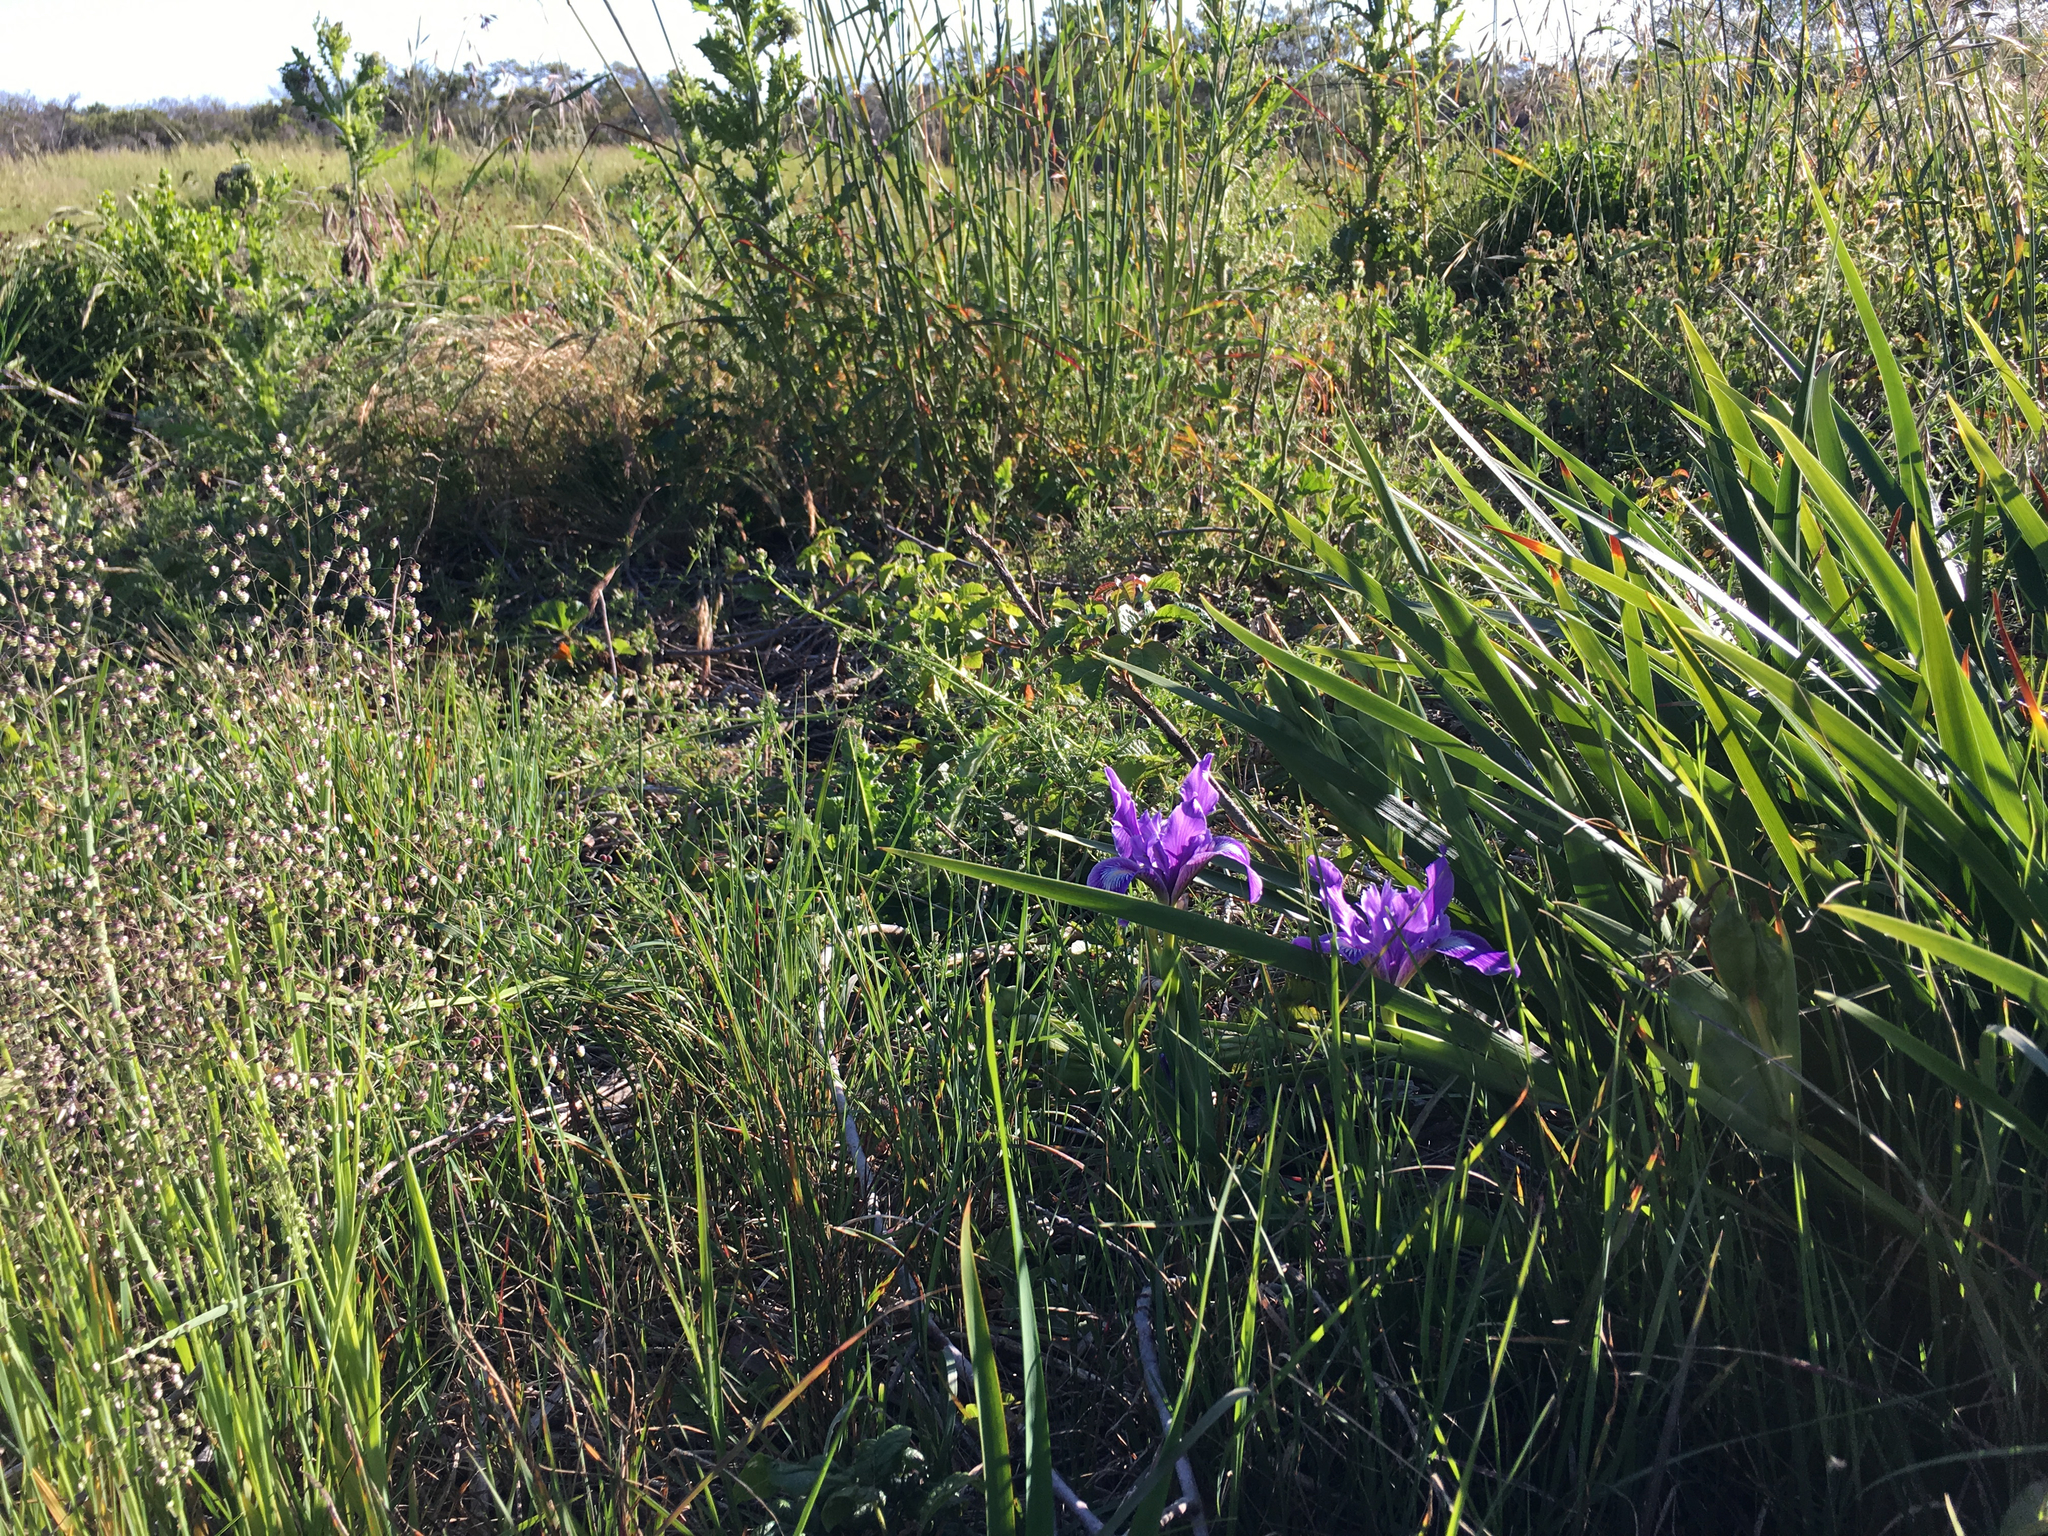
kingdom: Plantae
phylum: Tracheophyta
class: Liliopsida
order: Asparagales
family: Iridaceae
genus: Iris
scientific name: Iris douglasiana
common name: Marin iris
